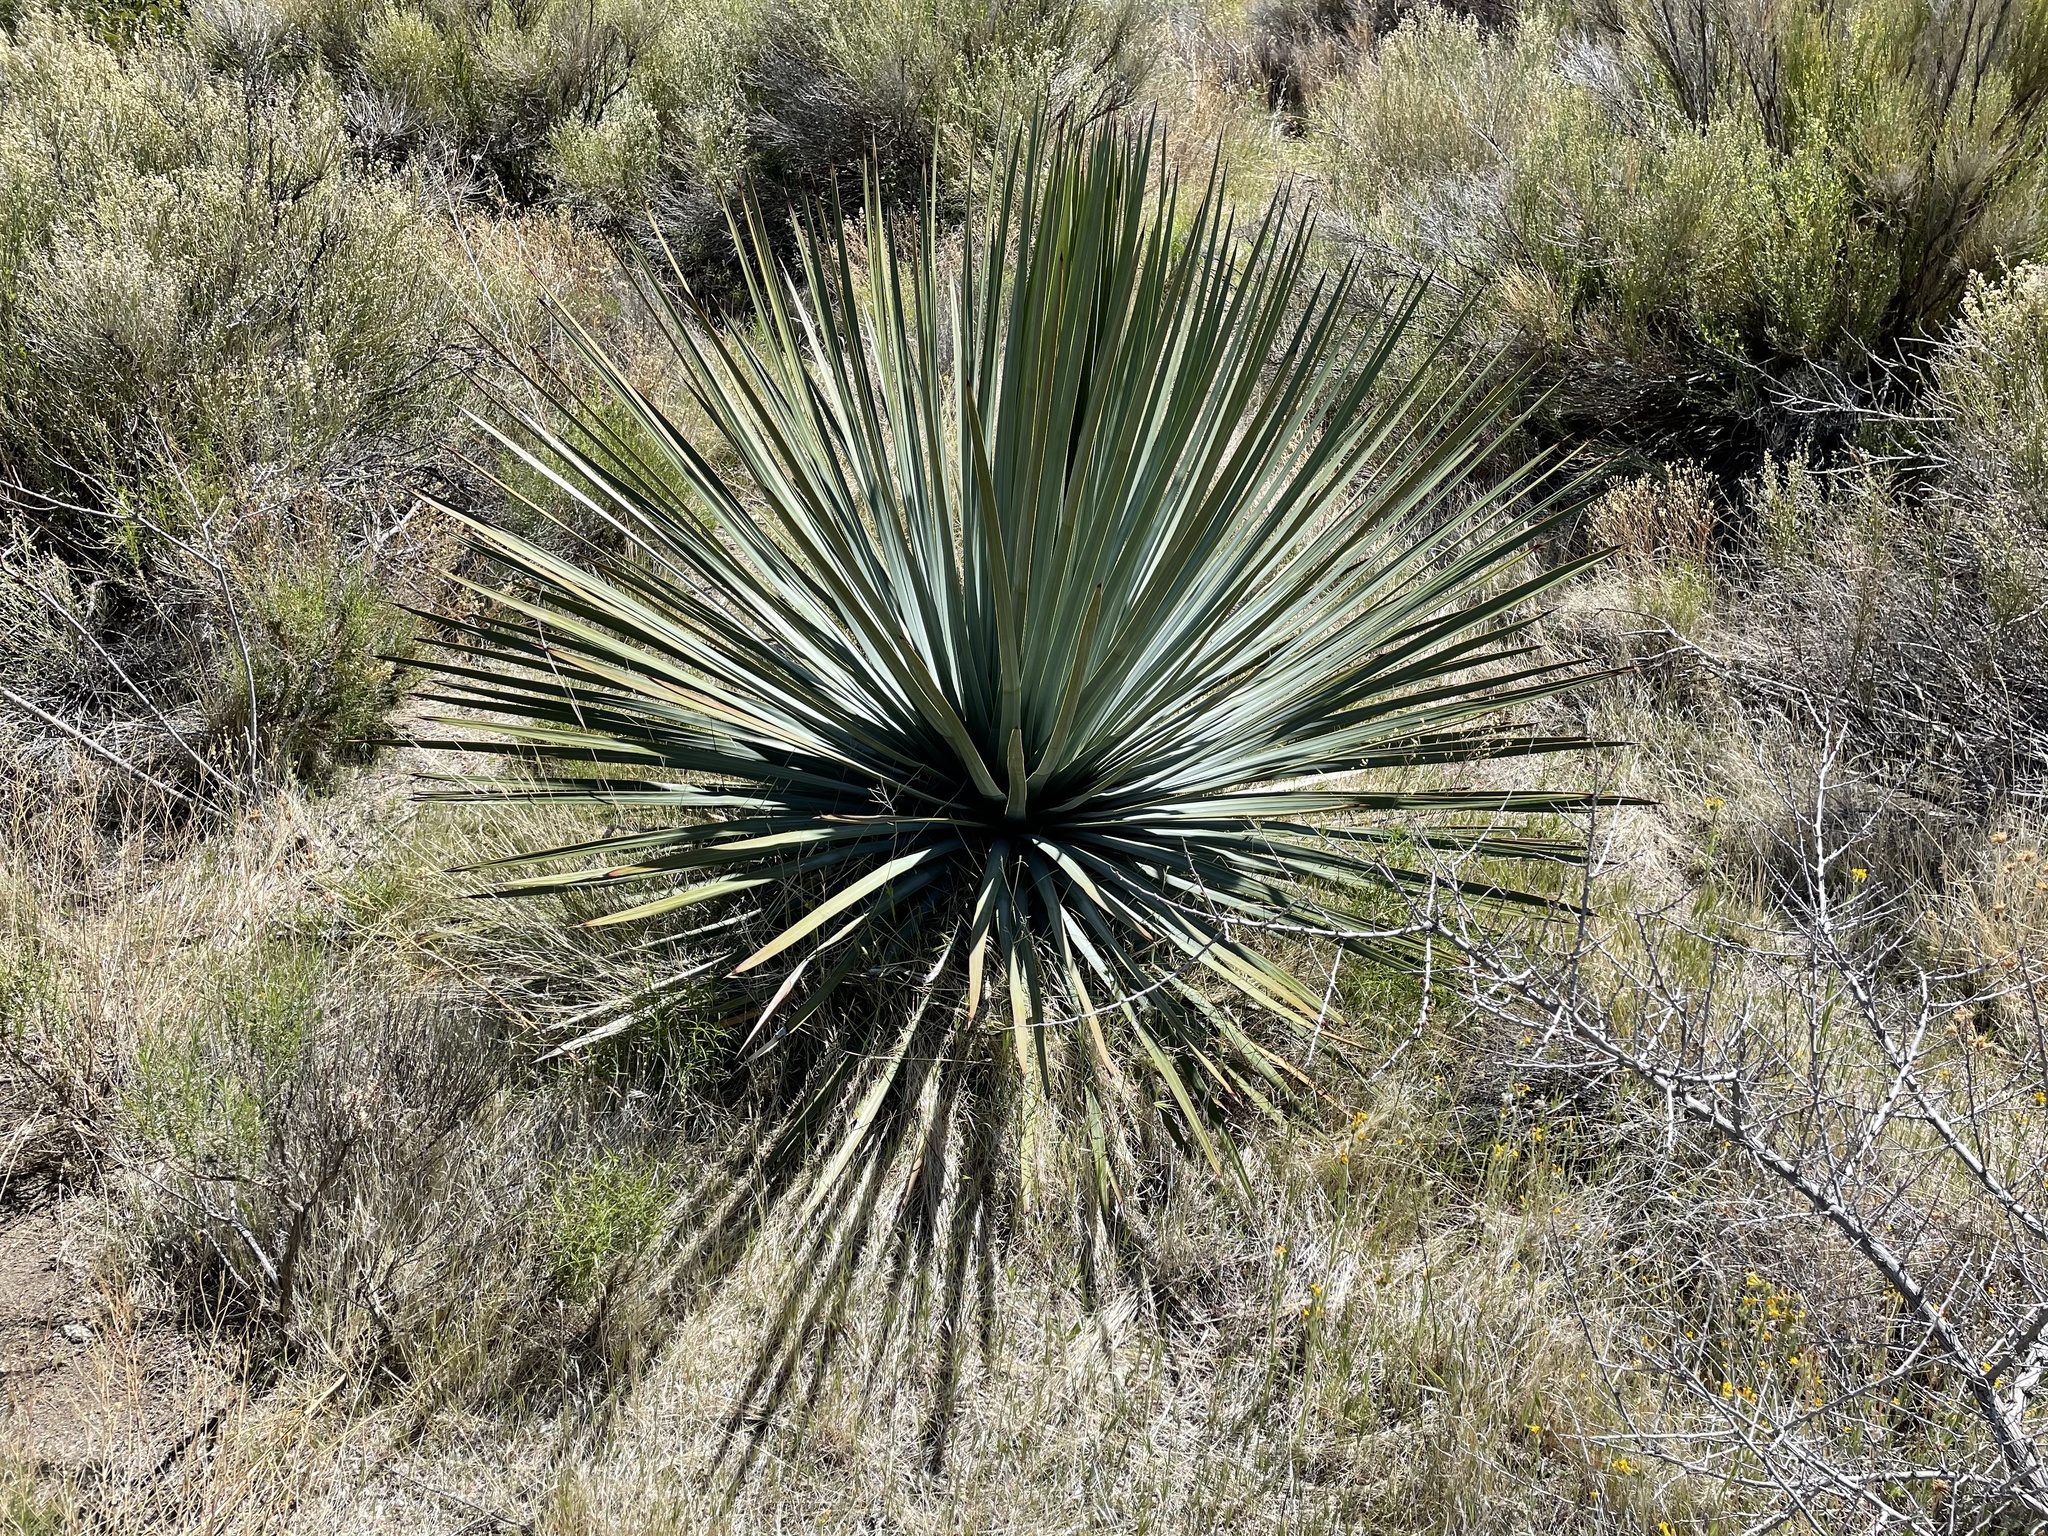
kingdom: Plantae
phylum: Tracheophyta
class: Liliopsida
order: Asparagales
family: Asparagaceae
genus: Hesperoyucca
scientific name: Hesperoyucca whipplei
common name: Our lord's-candle
